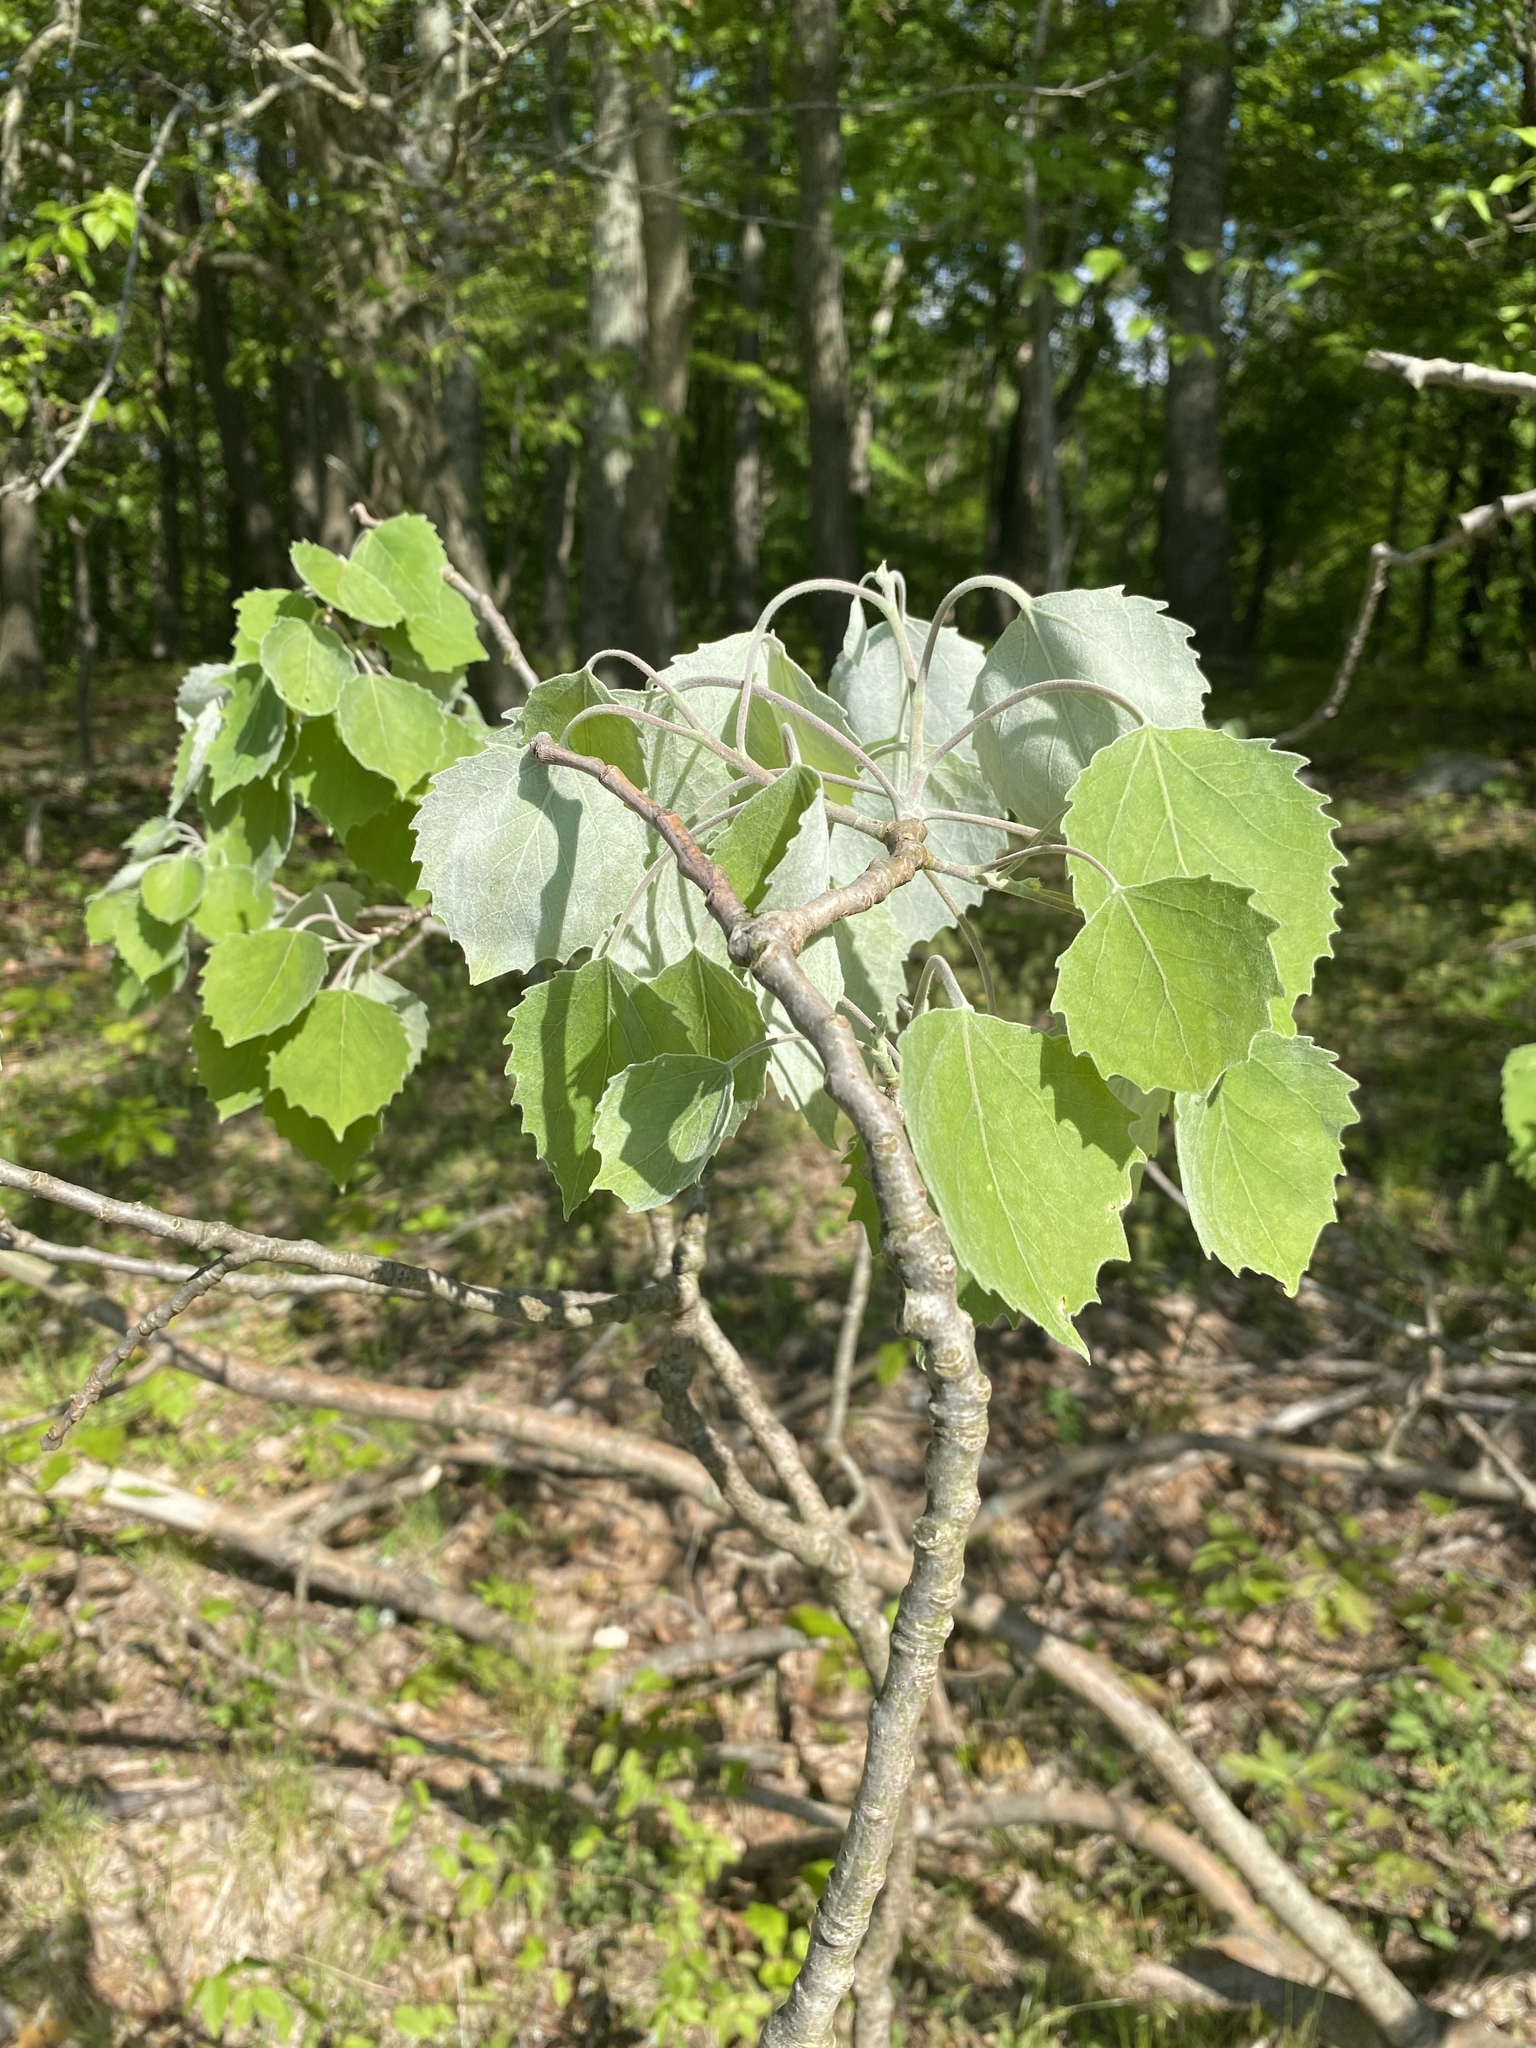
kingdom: Plantae
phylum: Tracheophyta
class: Magnoliopsida
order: Malpighiales
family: Salicaceae
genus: Populus
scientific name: Populus grandidentata
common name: Bigtooth aspen
